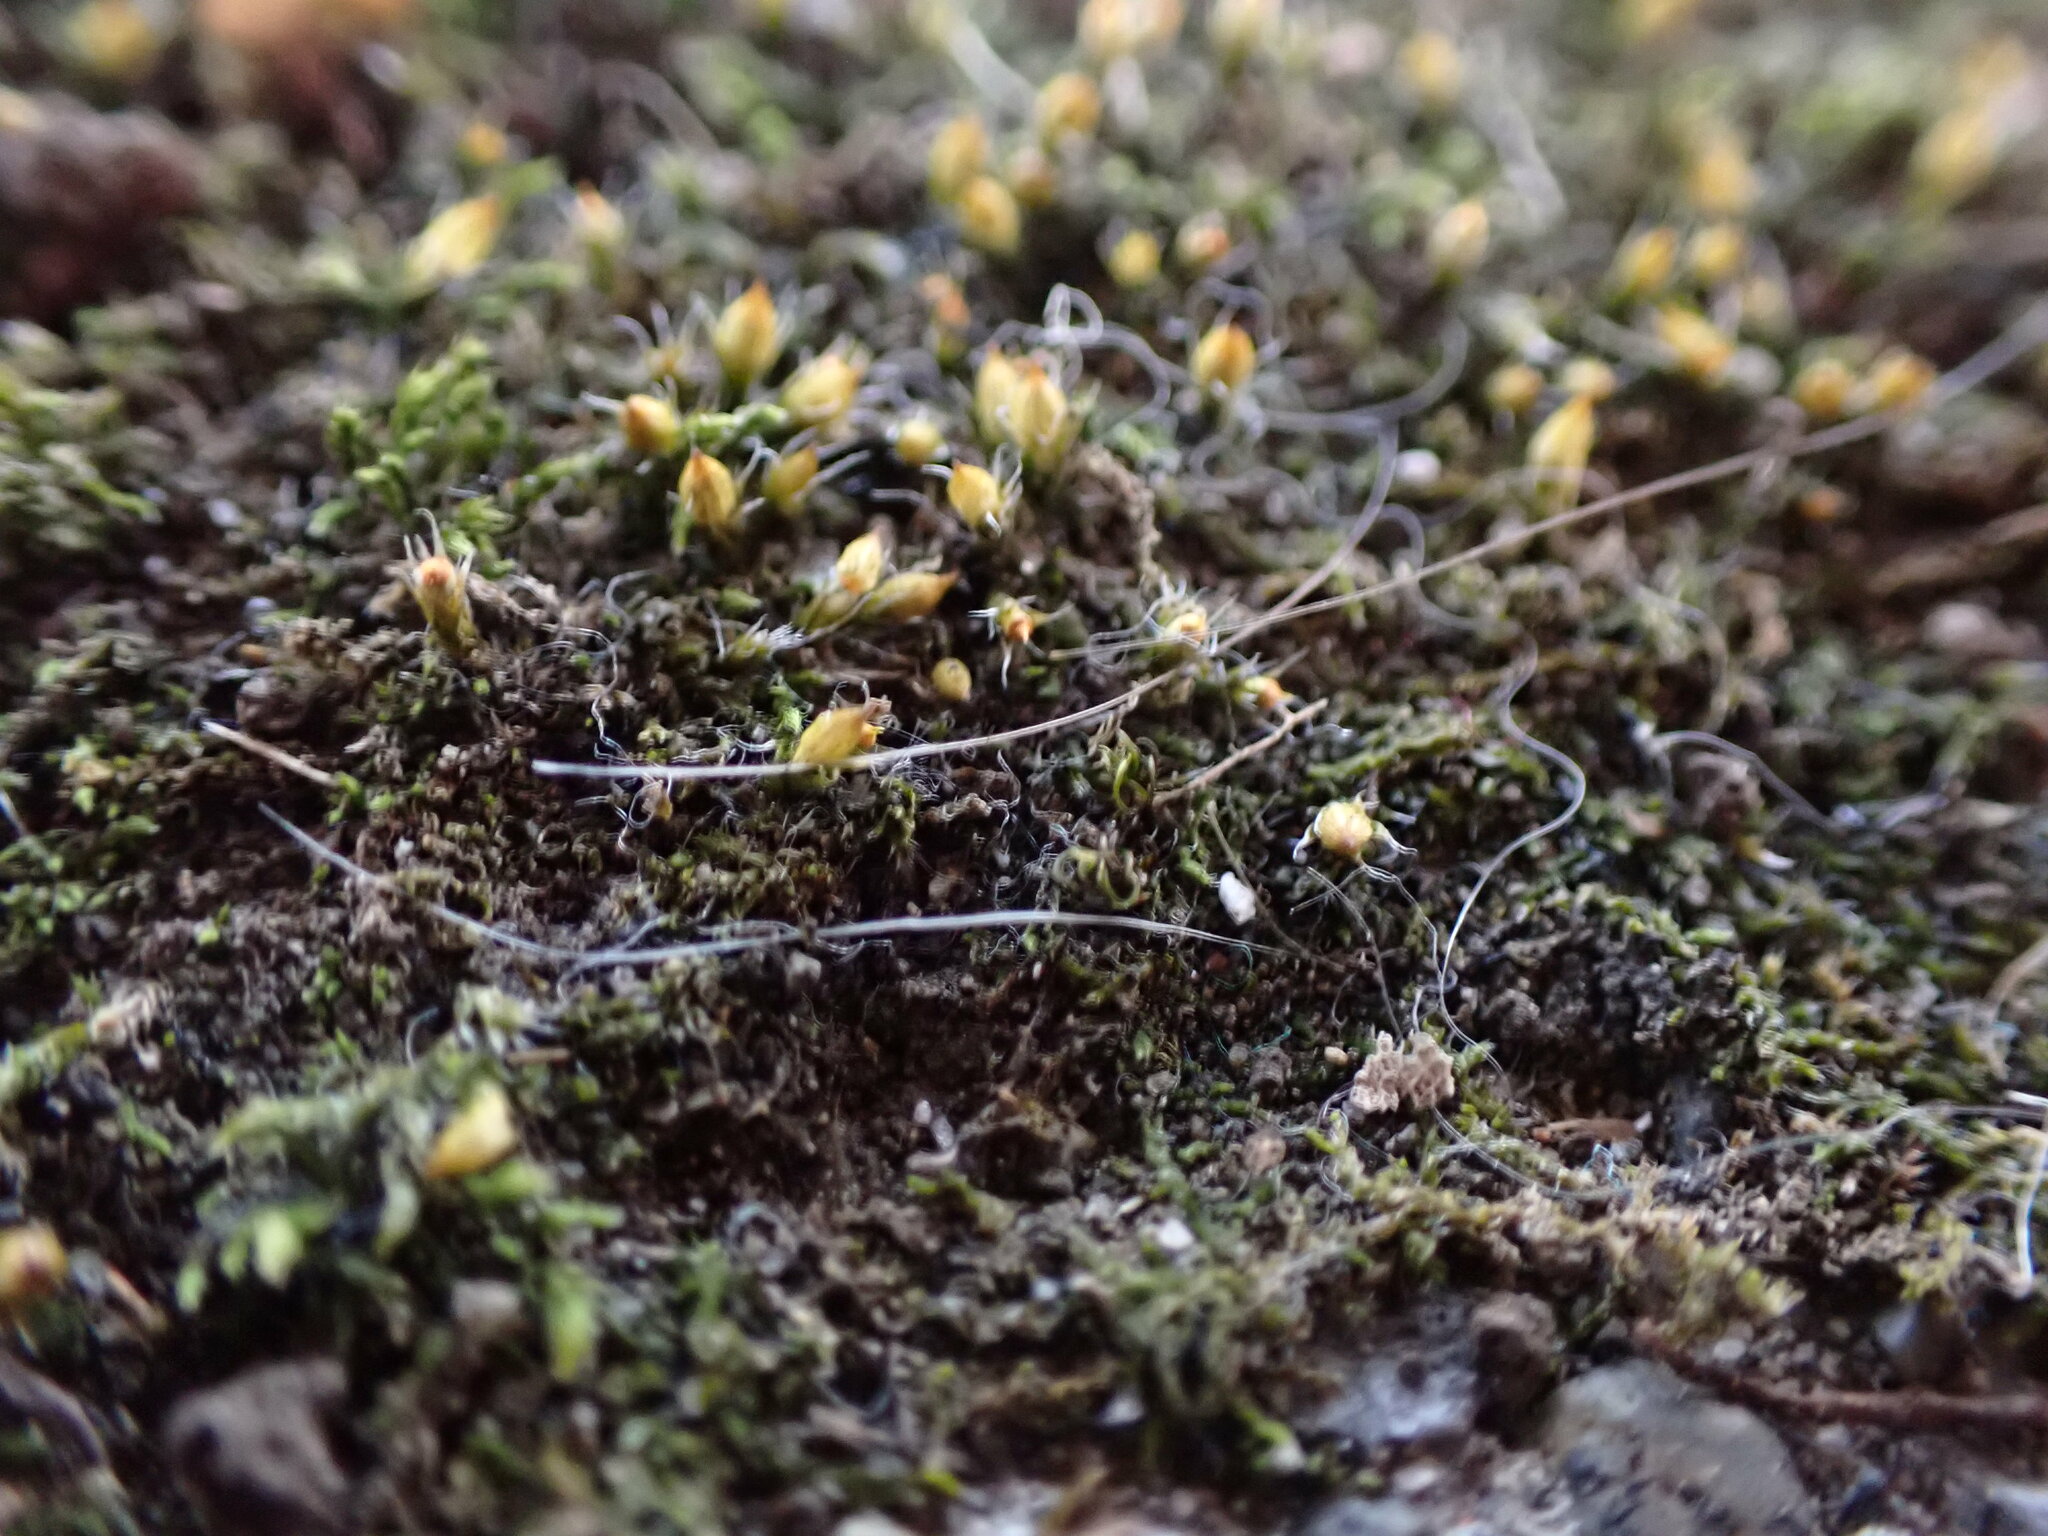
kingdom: Plantae
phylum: Bryophyta
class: Bryopsida
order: Dicranales
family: Erpodiaceae
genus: Venturiella
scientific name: Venturiella sinensis
